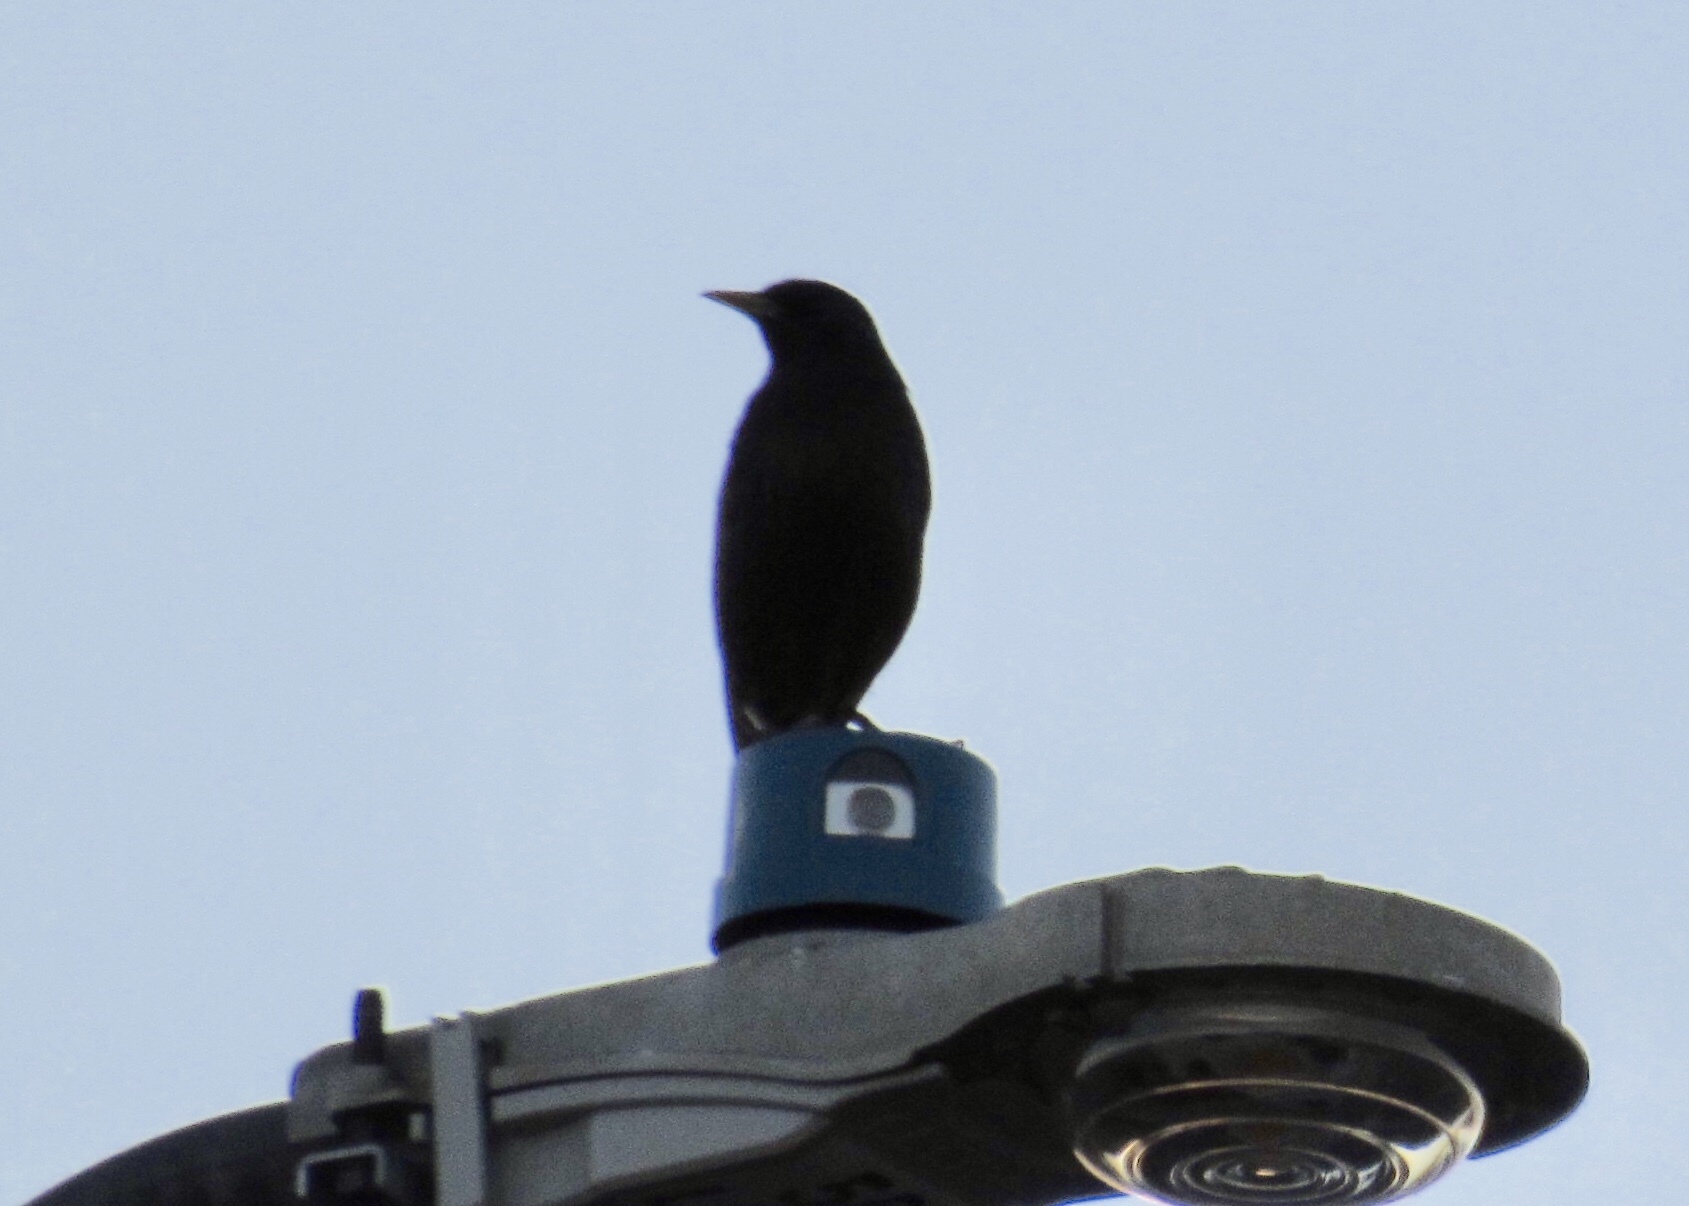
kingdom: Animalia
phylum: Chordata
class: Aves
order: Passeriformes
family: Sturnidae
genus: Sturnus
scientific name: Sturnus vulgaris
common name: Common starling
